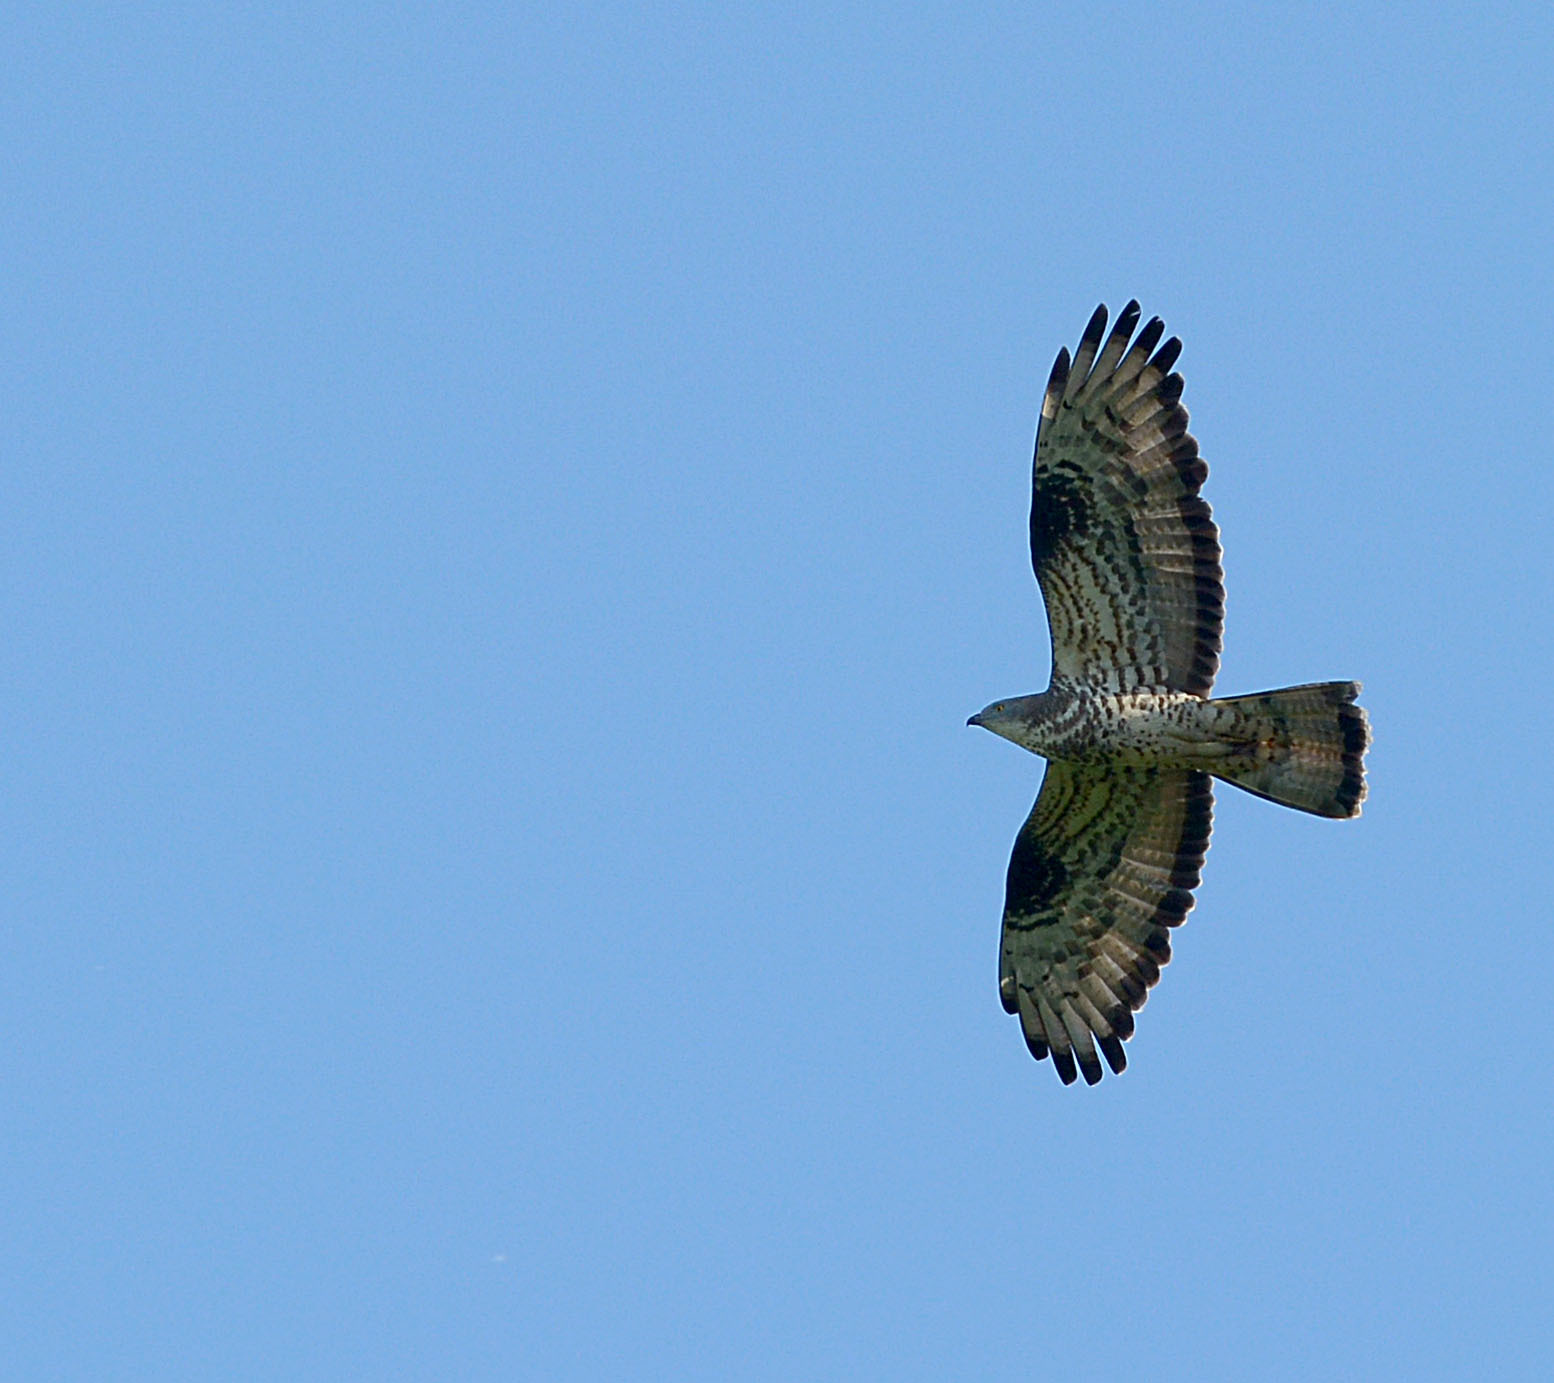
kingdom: Animalia
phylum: Chordata
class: Aves
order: Accipitriformes
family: Accipitridae
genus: Pernis
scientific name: Pernis apivorus
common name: European honey buzzard
